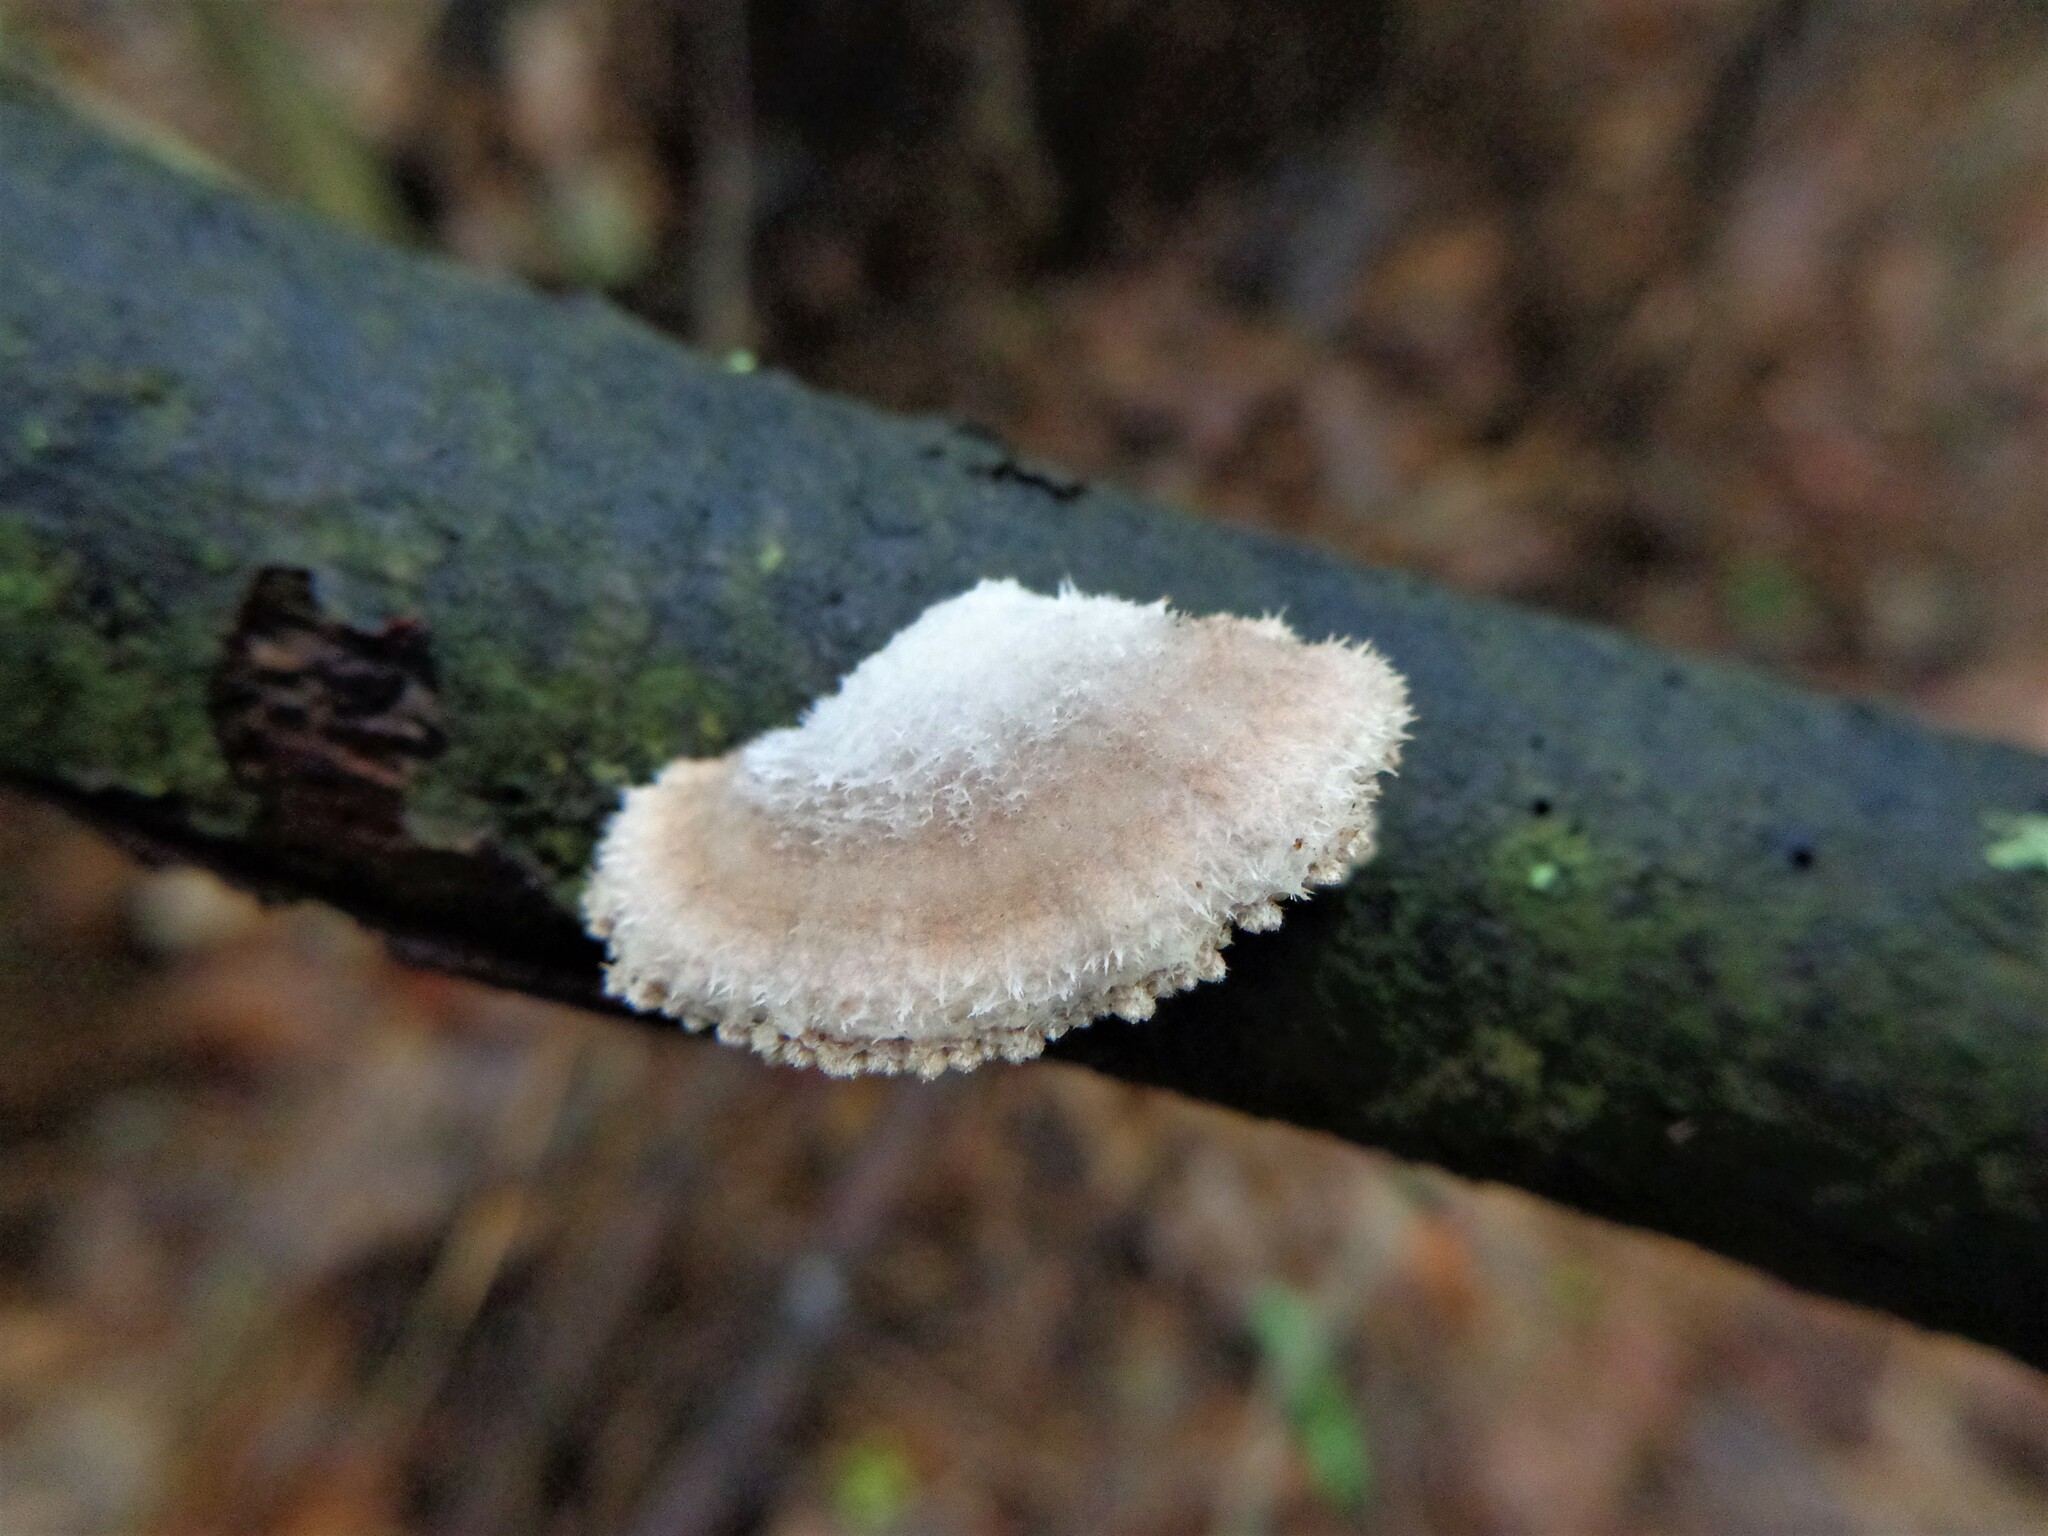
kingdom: Fungi
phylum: Basidiomycota
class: Agaricomycetes
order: Agaricales
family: Schizophyllaceae
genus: Schizophyllum
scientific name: Schizophyllum commune
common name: Common porecrust
